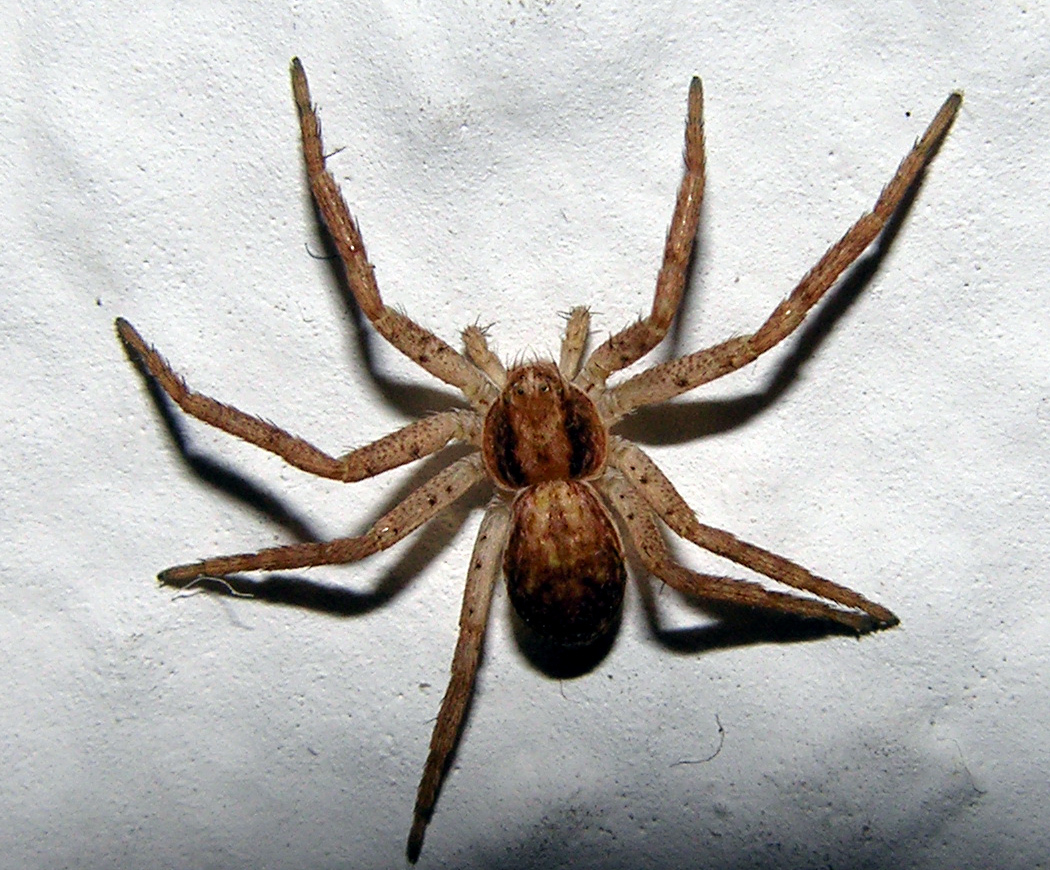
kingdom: Animalia
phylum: Arthropoda
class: Arachnida
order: Araneae
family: Philodromidae
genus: Philodromus
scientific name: Philodromus dispar
